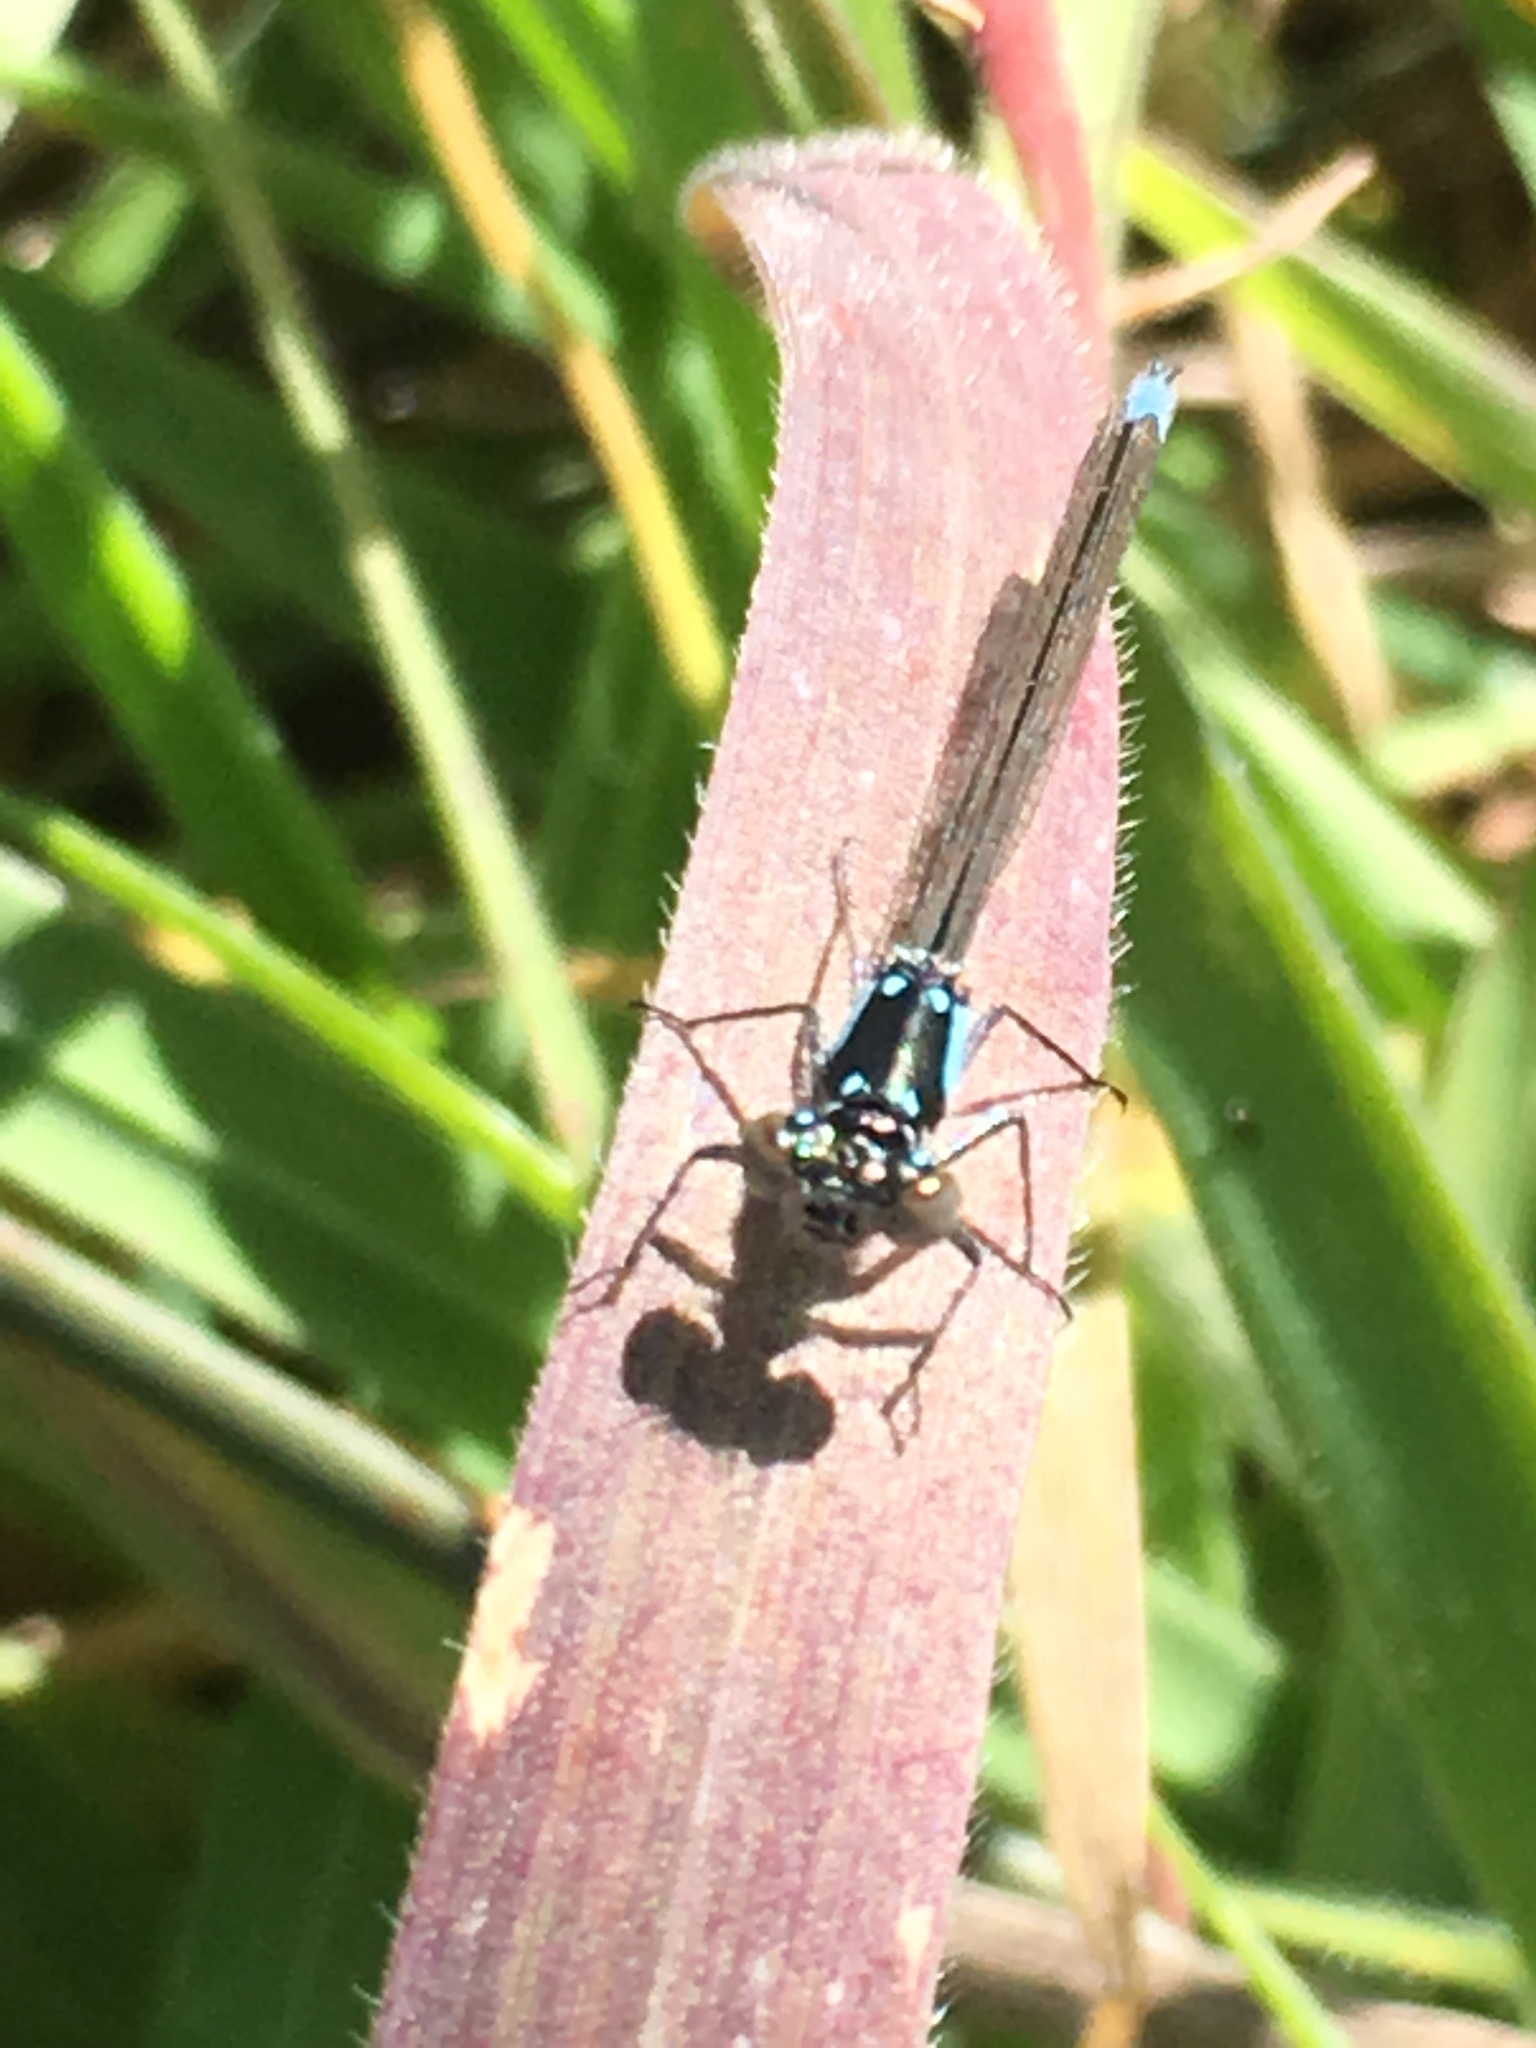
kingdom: Animalia
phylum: Arthropoda
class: Insecta
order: Odonata
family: Coenagrionidae
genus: Ischnura
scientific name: Ischnura cervula
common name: Pacific forktail
